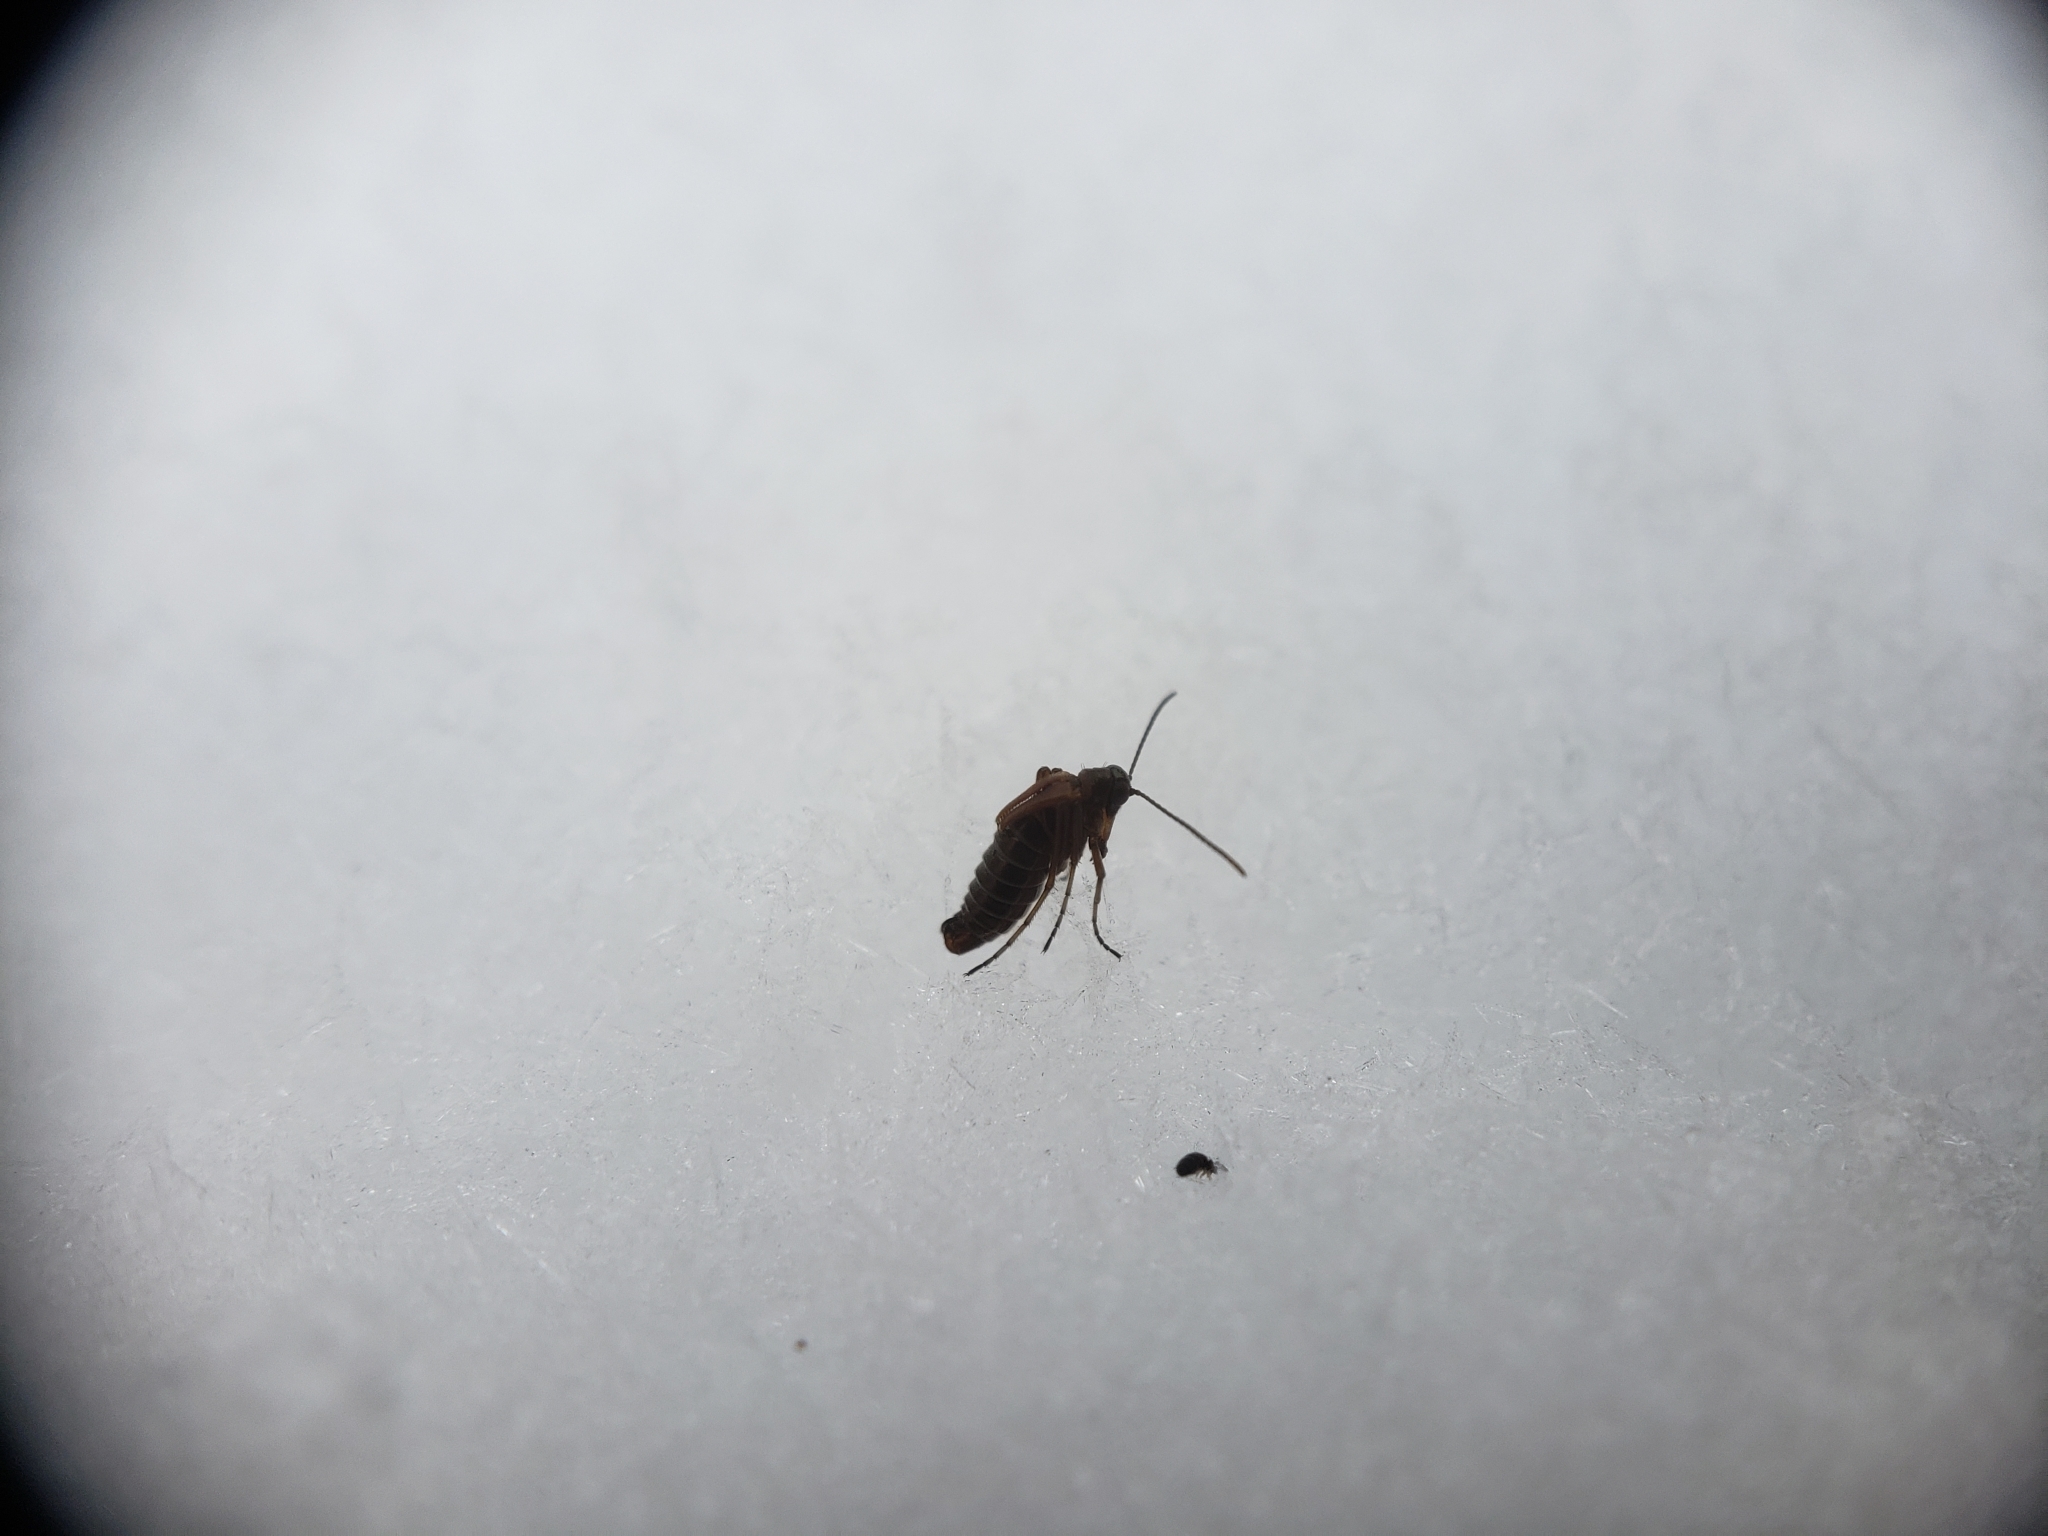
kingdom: Animalia
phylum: Arthropoda
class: Insecta
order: Mecoptera
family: Boreidae
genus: Boreus
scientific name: Boreus nivoriundus
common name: Snow-born boreus
